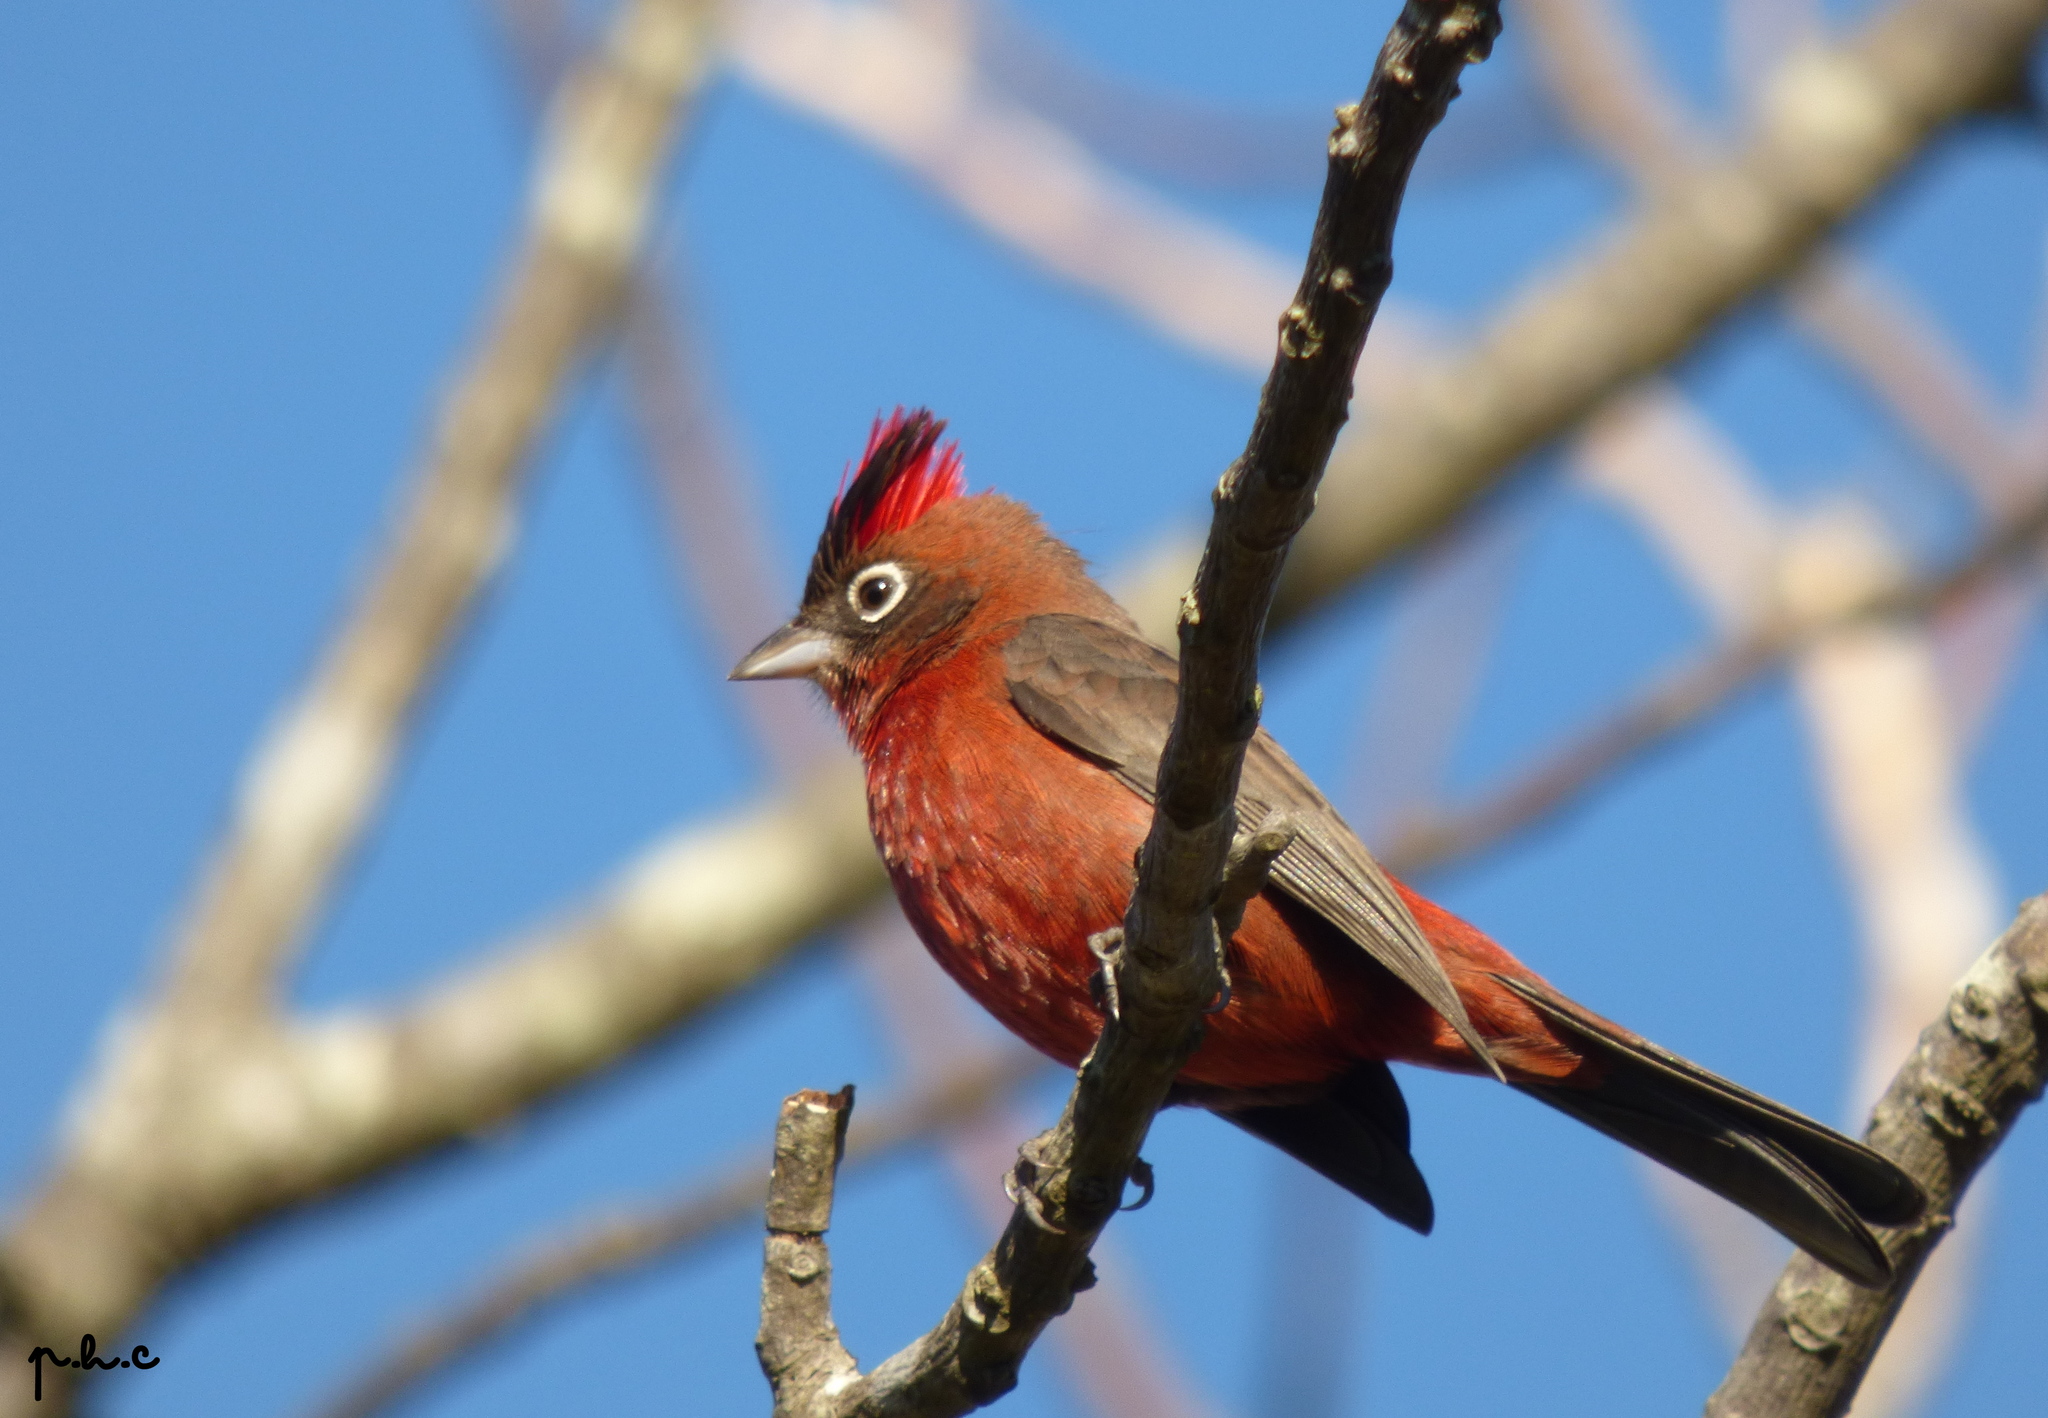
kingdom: Animalia
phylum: Chordata
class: Aves
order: Passeriformes
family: Thraupidae
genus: Coryphospingus
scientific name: Coryphospingus cucullatus
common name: Red pileated finch
